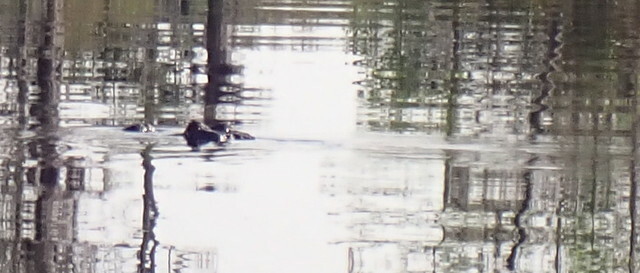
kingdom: Animalia
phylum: Chordata
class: Crocodylia
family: Alligatoridae
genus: Alligator
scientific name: Alligator mississippiensis
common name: American alligator
